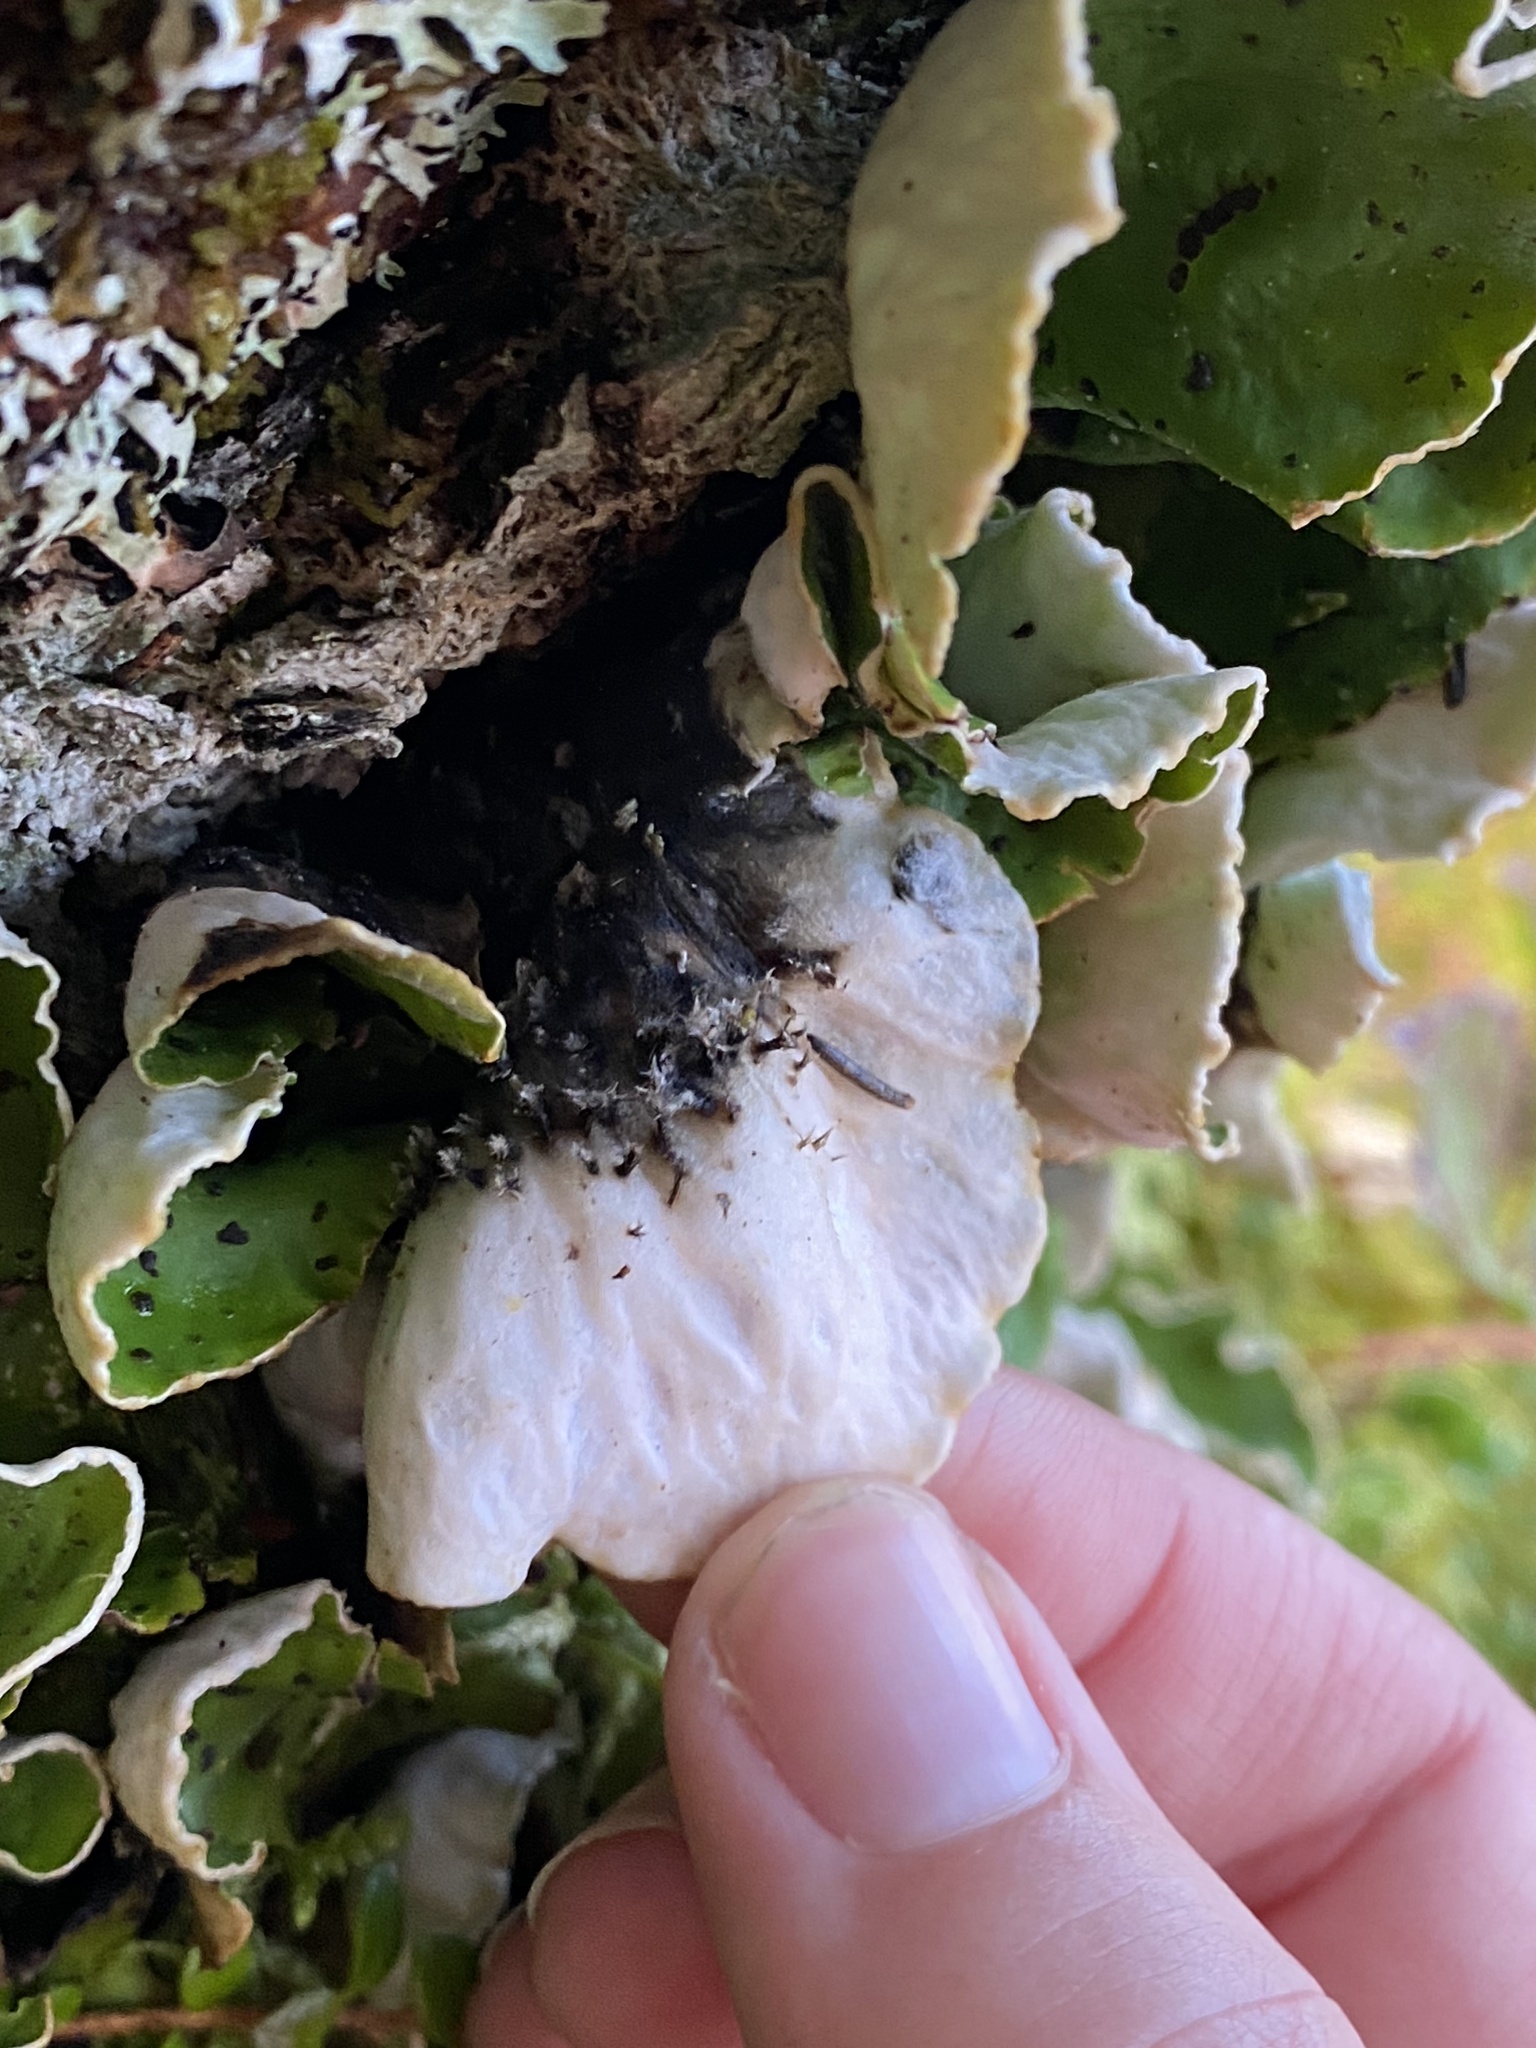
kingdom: Fungi
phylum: Ascomycota
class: Lecanoromycetes
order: Peltigerales
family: Peltigeraceae
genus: Peltigera
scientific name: Peltigera aphthosa
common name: Common freckle pelt lichen
